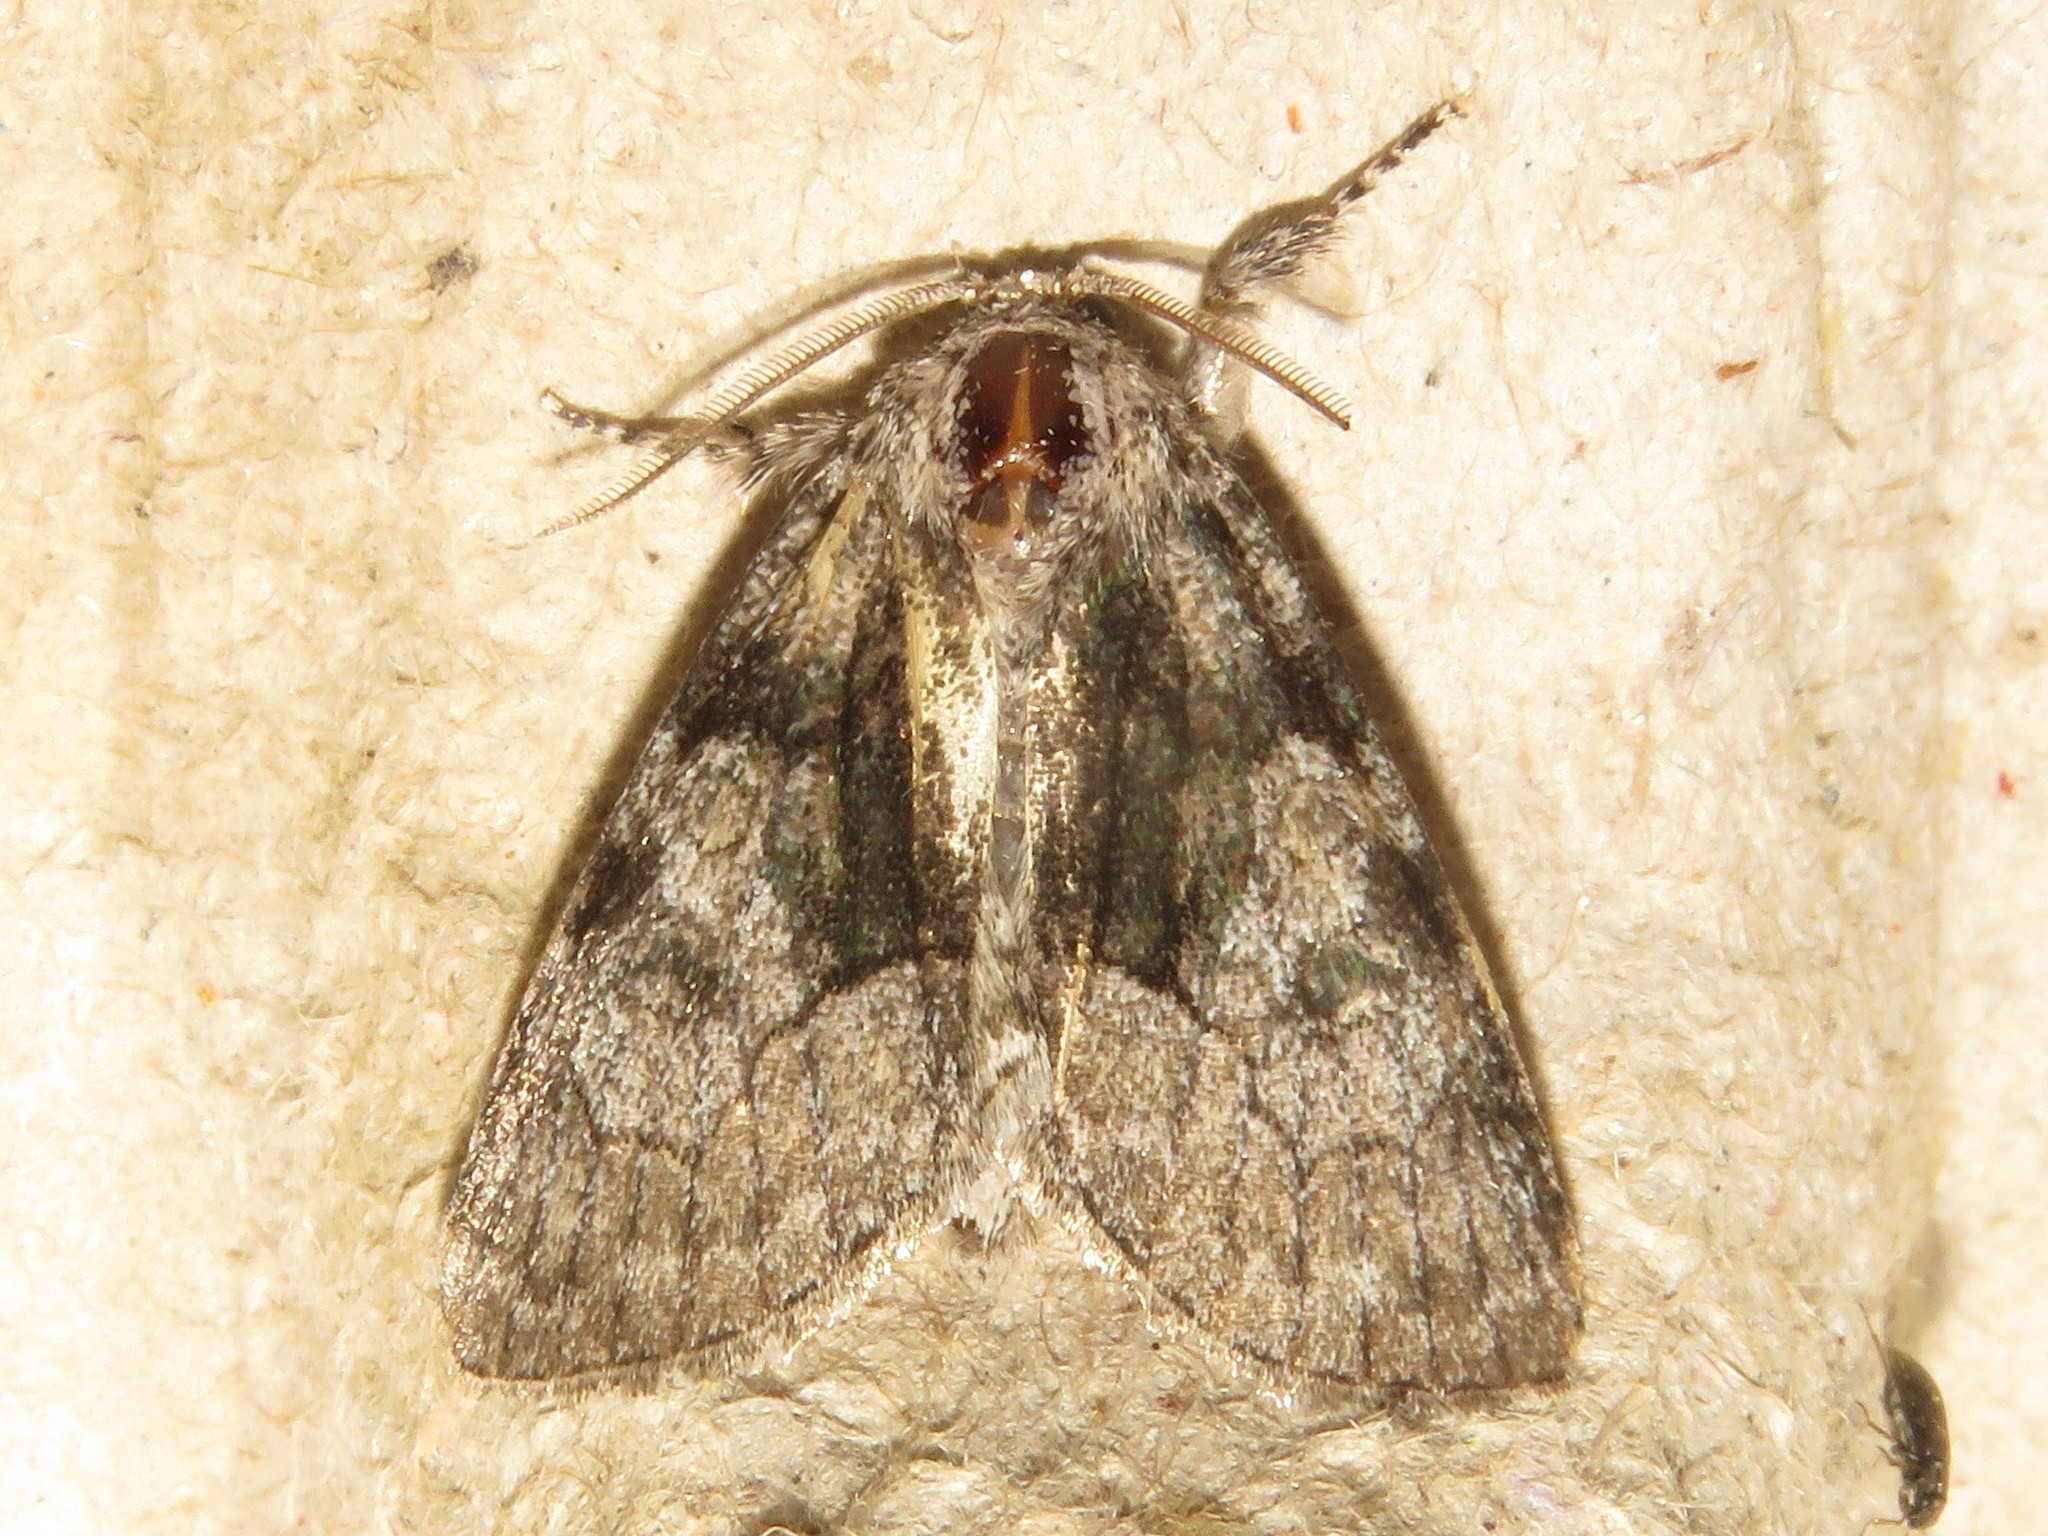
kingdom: Animalia
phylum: Arthropoda
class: Insecta
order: Lepidoptera
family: Noctuidae
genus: Raphia
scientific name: Raphia frater
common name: Brother
